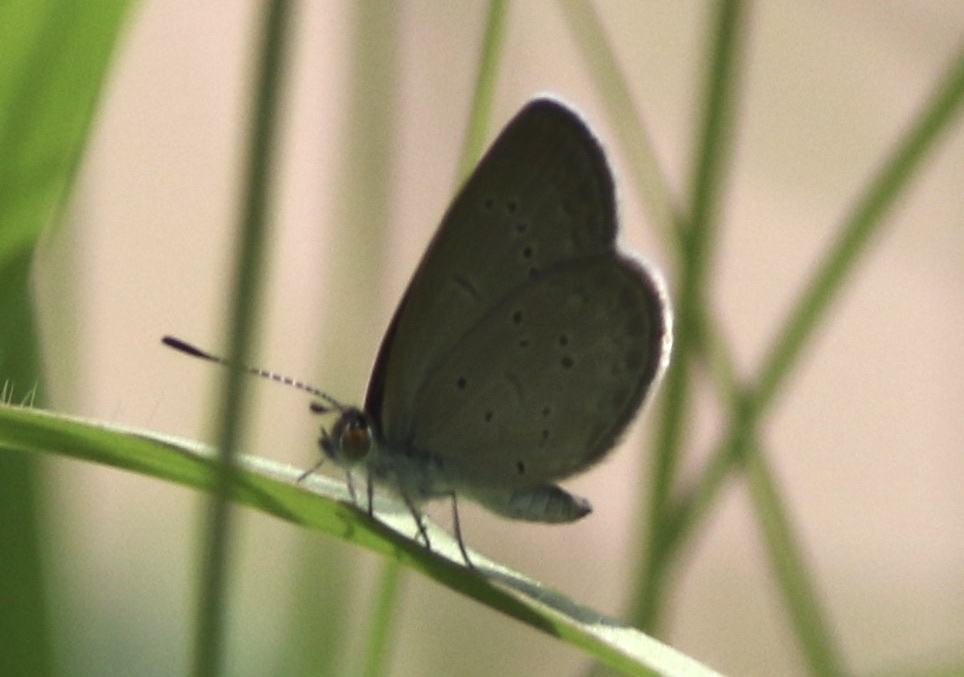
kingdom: Animalia
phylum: Arthropoda
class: Insecta
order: Lepidoptera
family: Lycaenidae
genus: Zizina
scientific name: Zizina otis
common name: Lesser grass blue
